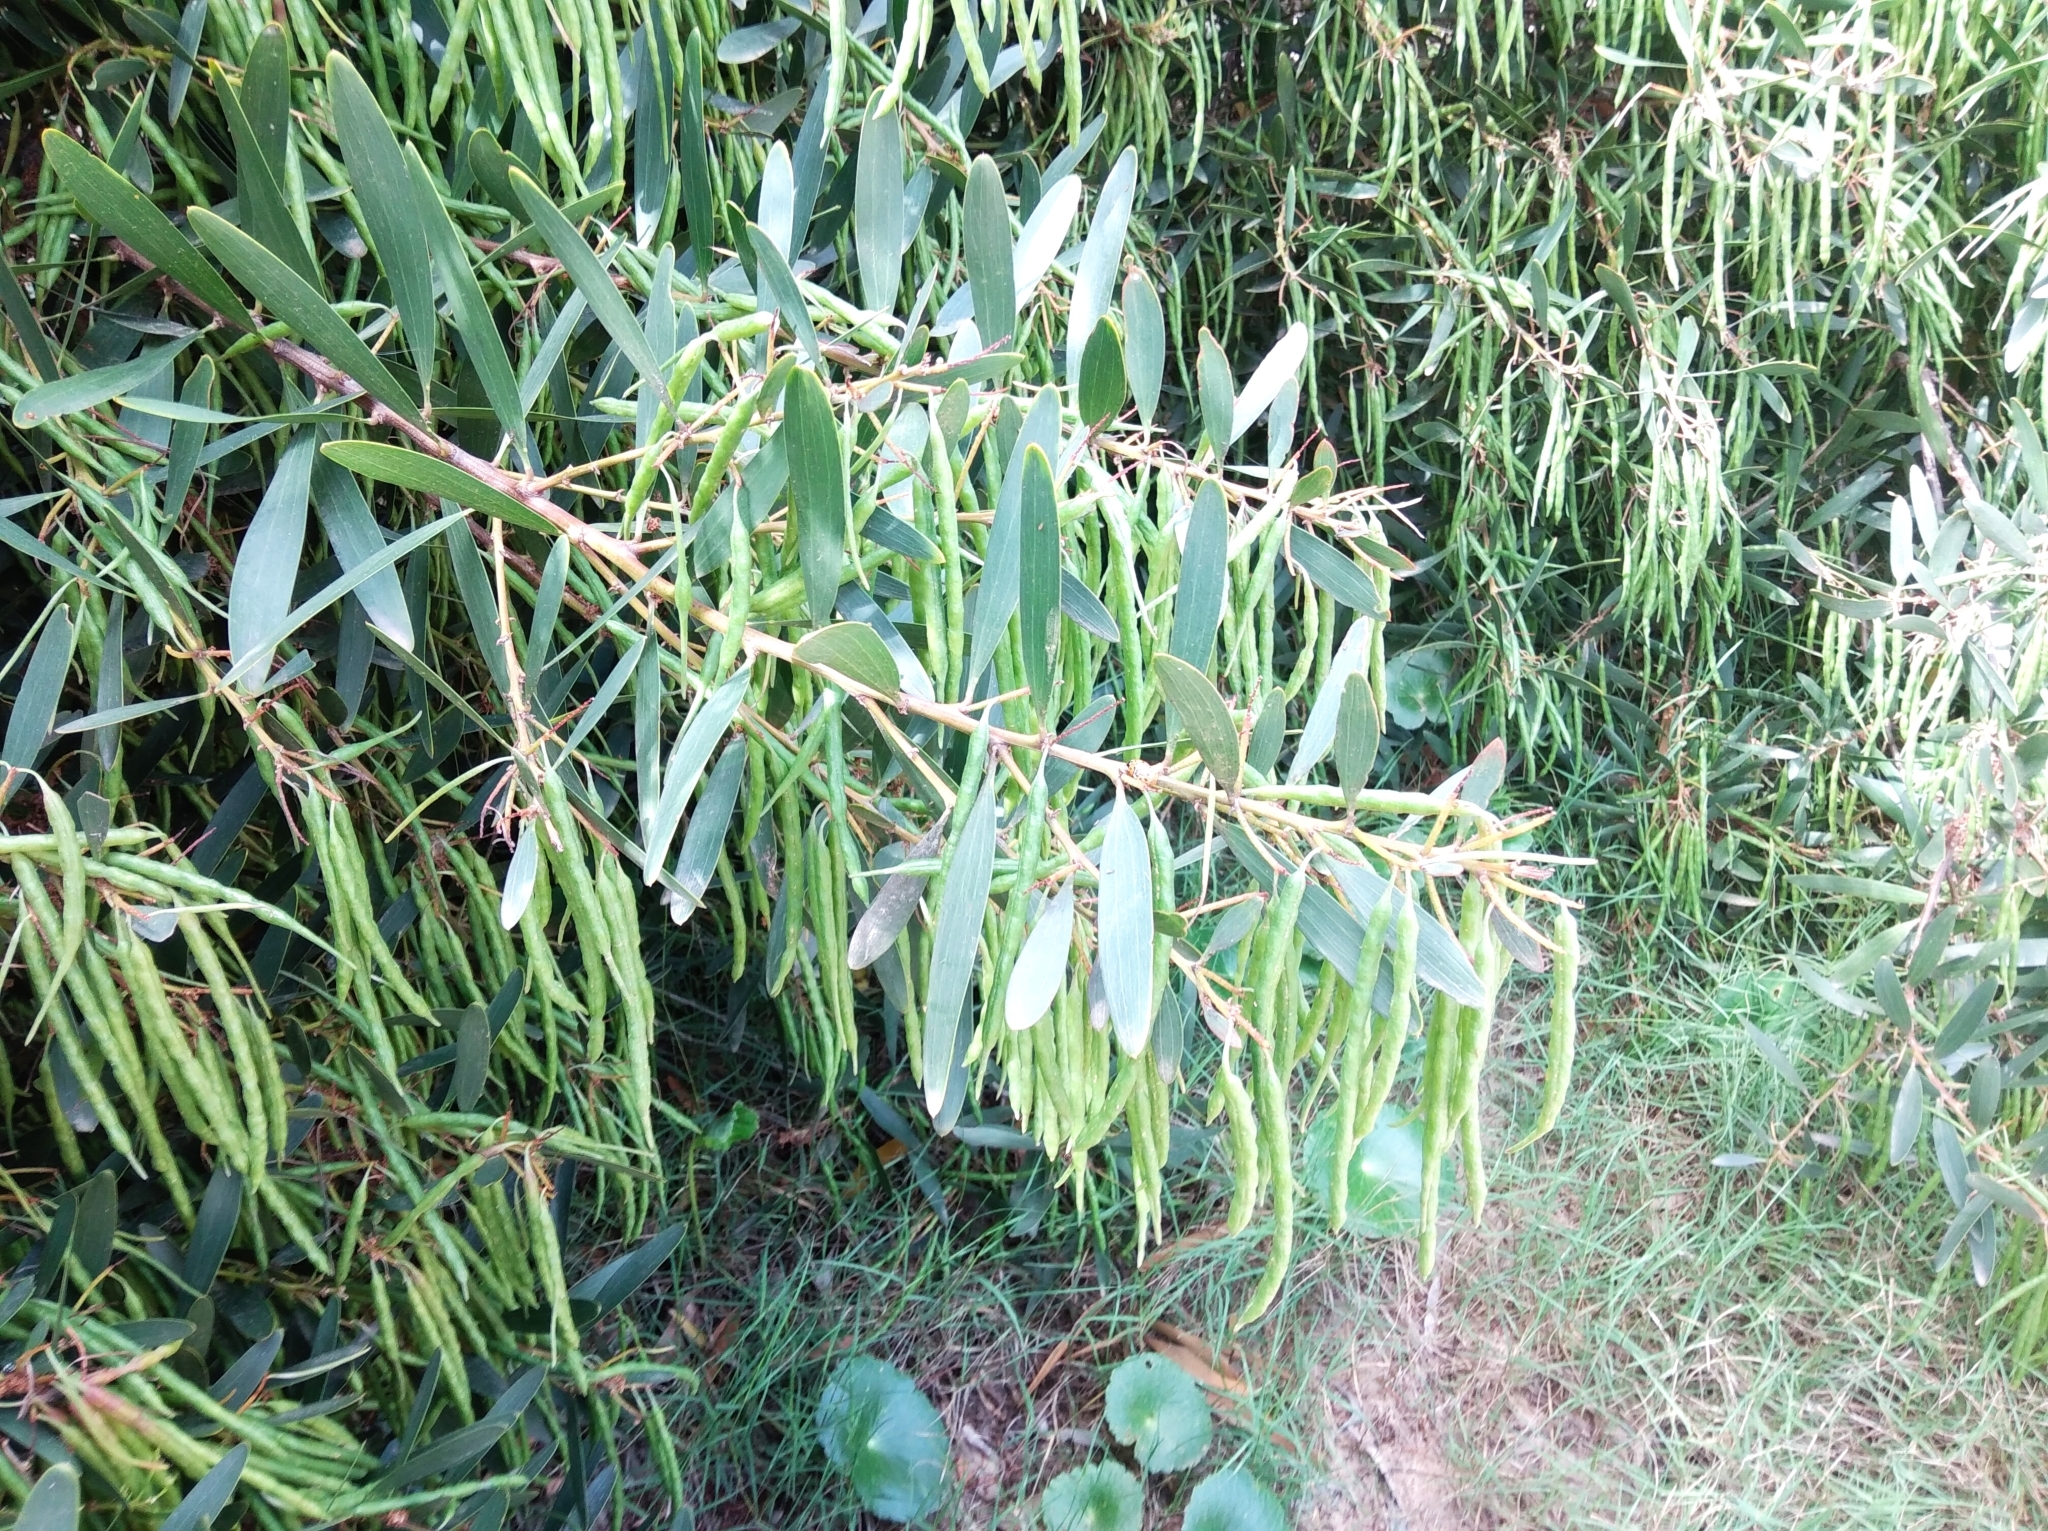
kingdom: Plantae
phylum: Tracheophyta
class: Magnoliopsida
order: Fabales
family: Fabaceae
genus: Acacia
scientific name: Acacia longifolia
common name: Sydney golden wattle
